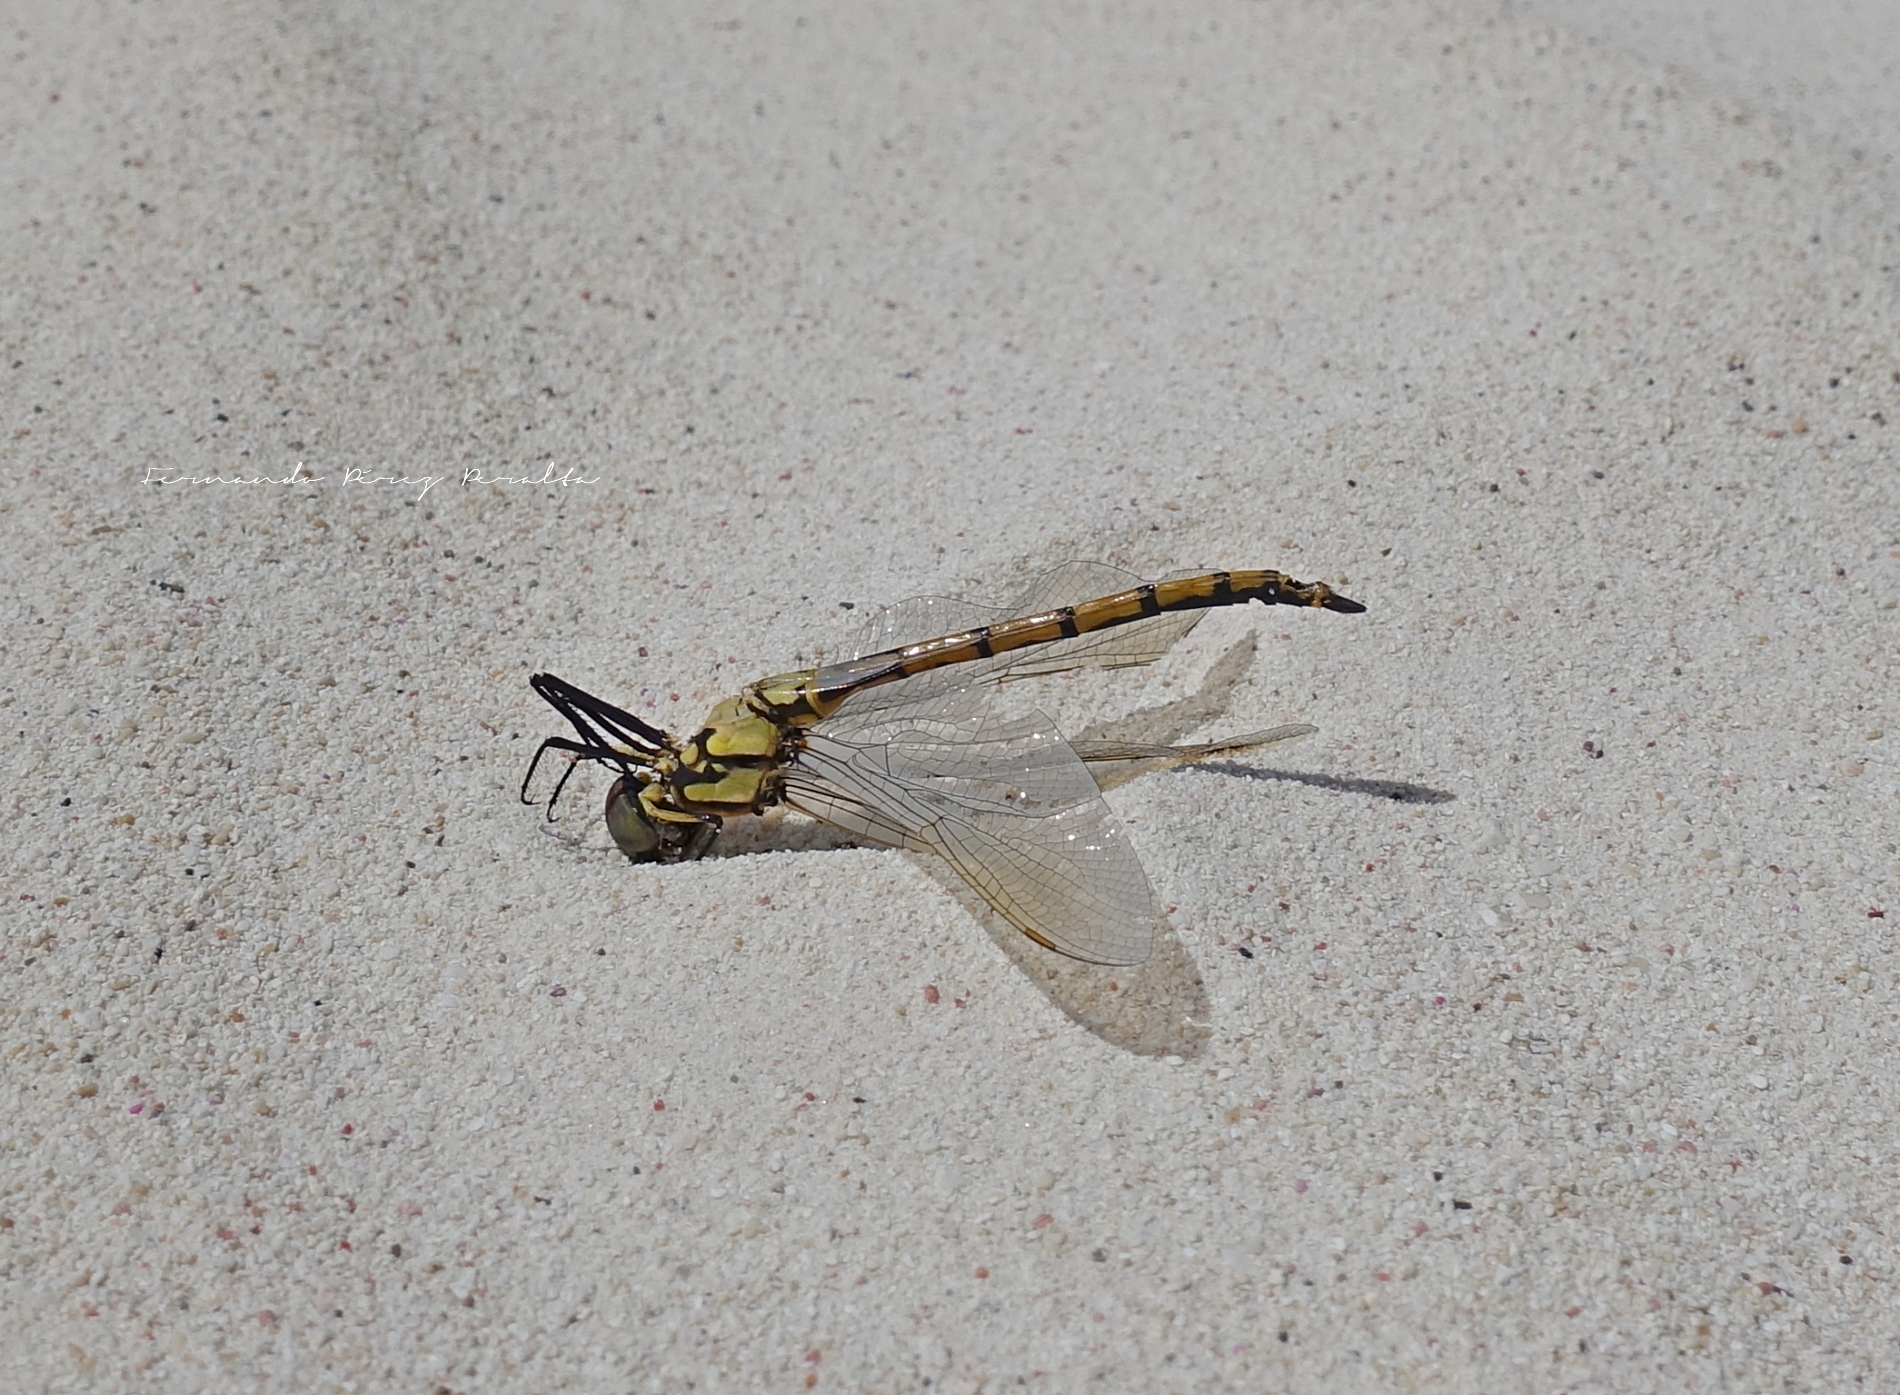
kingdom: Animalia
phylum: Arthropoda
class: Insecta
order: Odonata
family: Corduliidae
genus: Hemicordulia
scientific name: Hemicordulia tau
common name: Tau emerald
